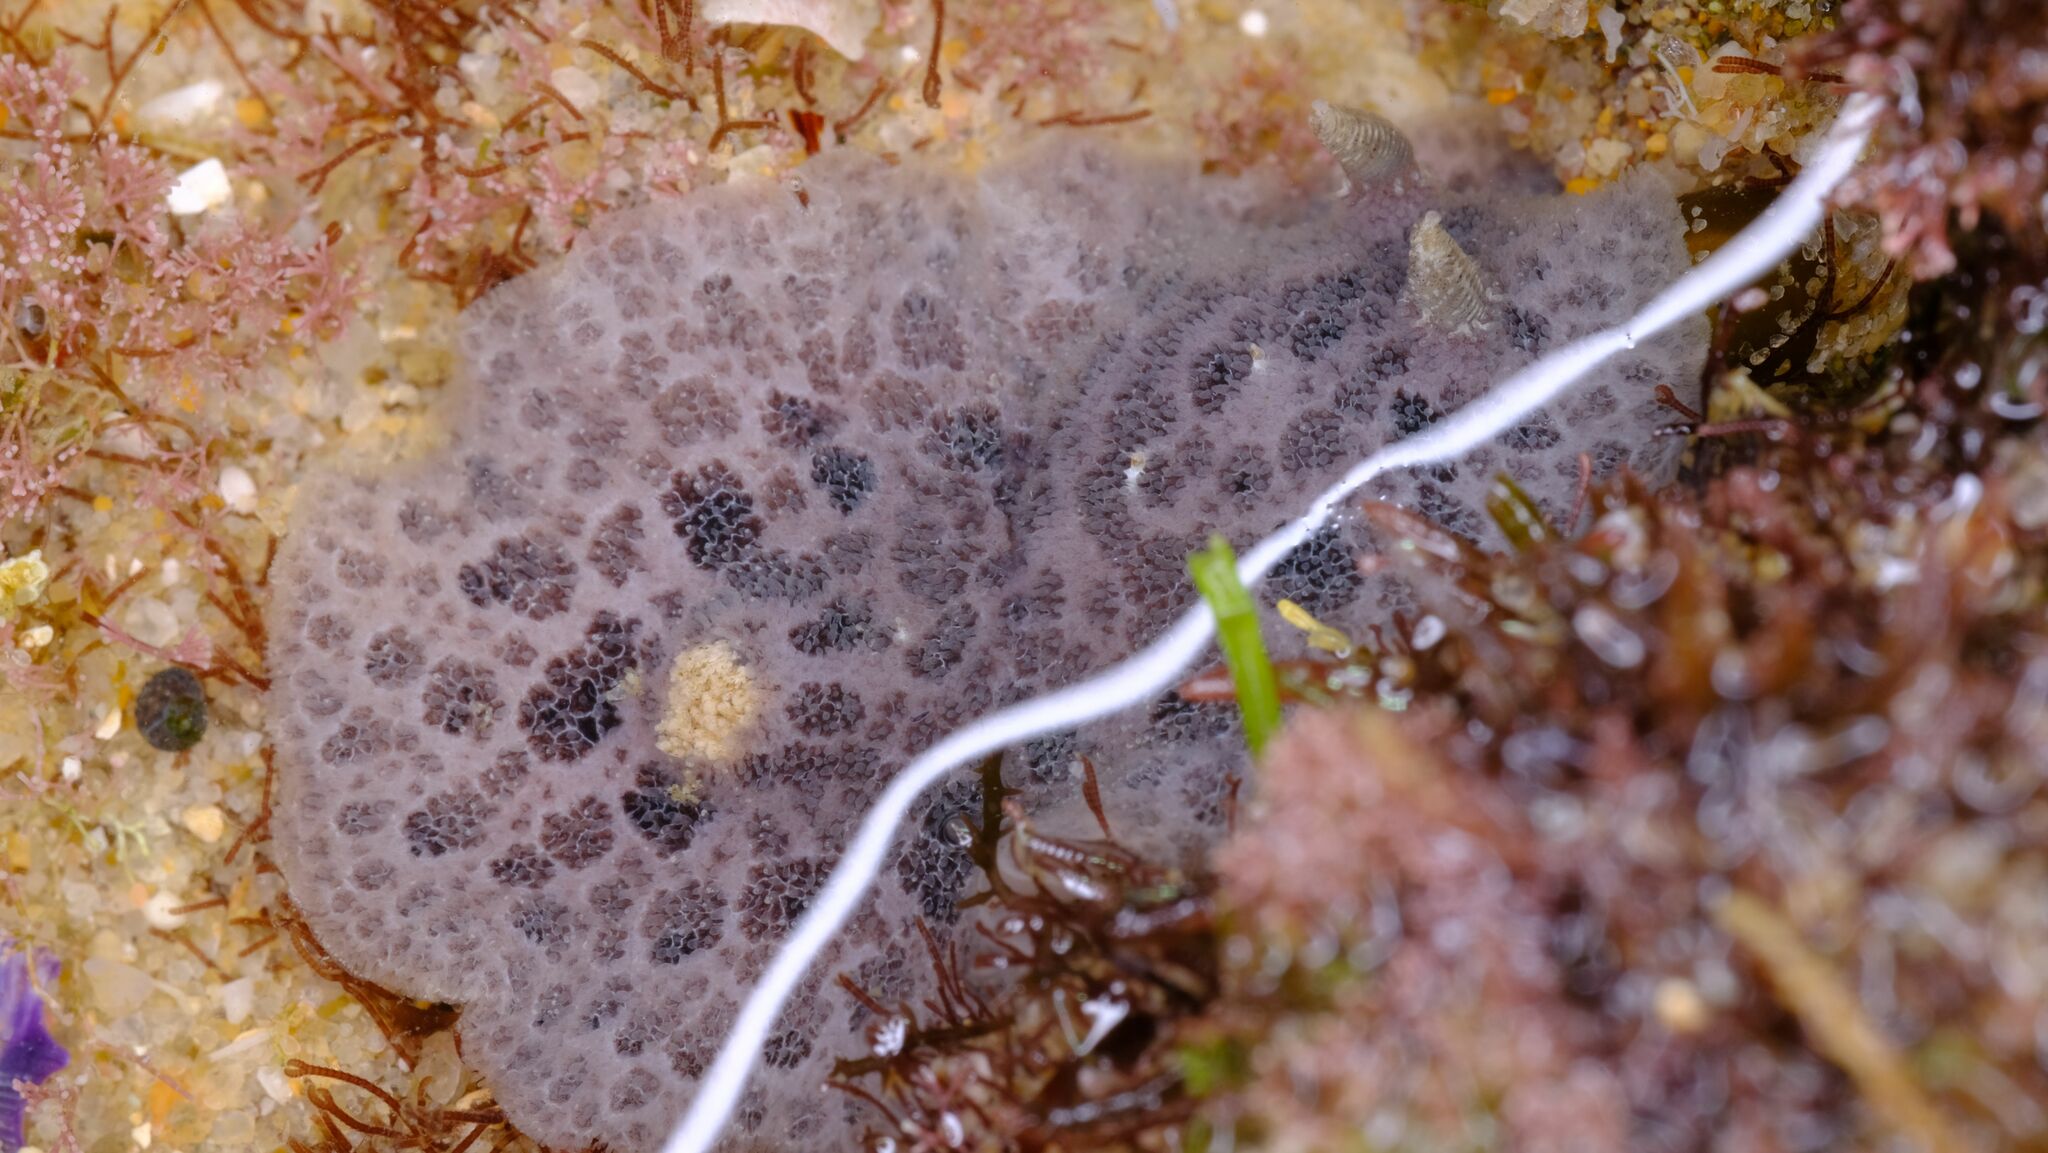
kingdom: Animalia
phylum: Mollusca
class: Gastropoda
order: Nudibranchia
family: Discodorididae
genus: Tayuva
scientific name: Tayuva lilacina
